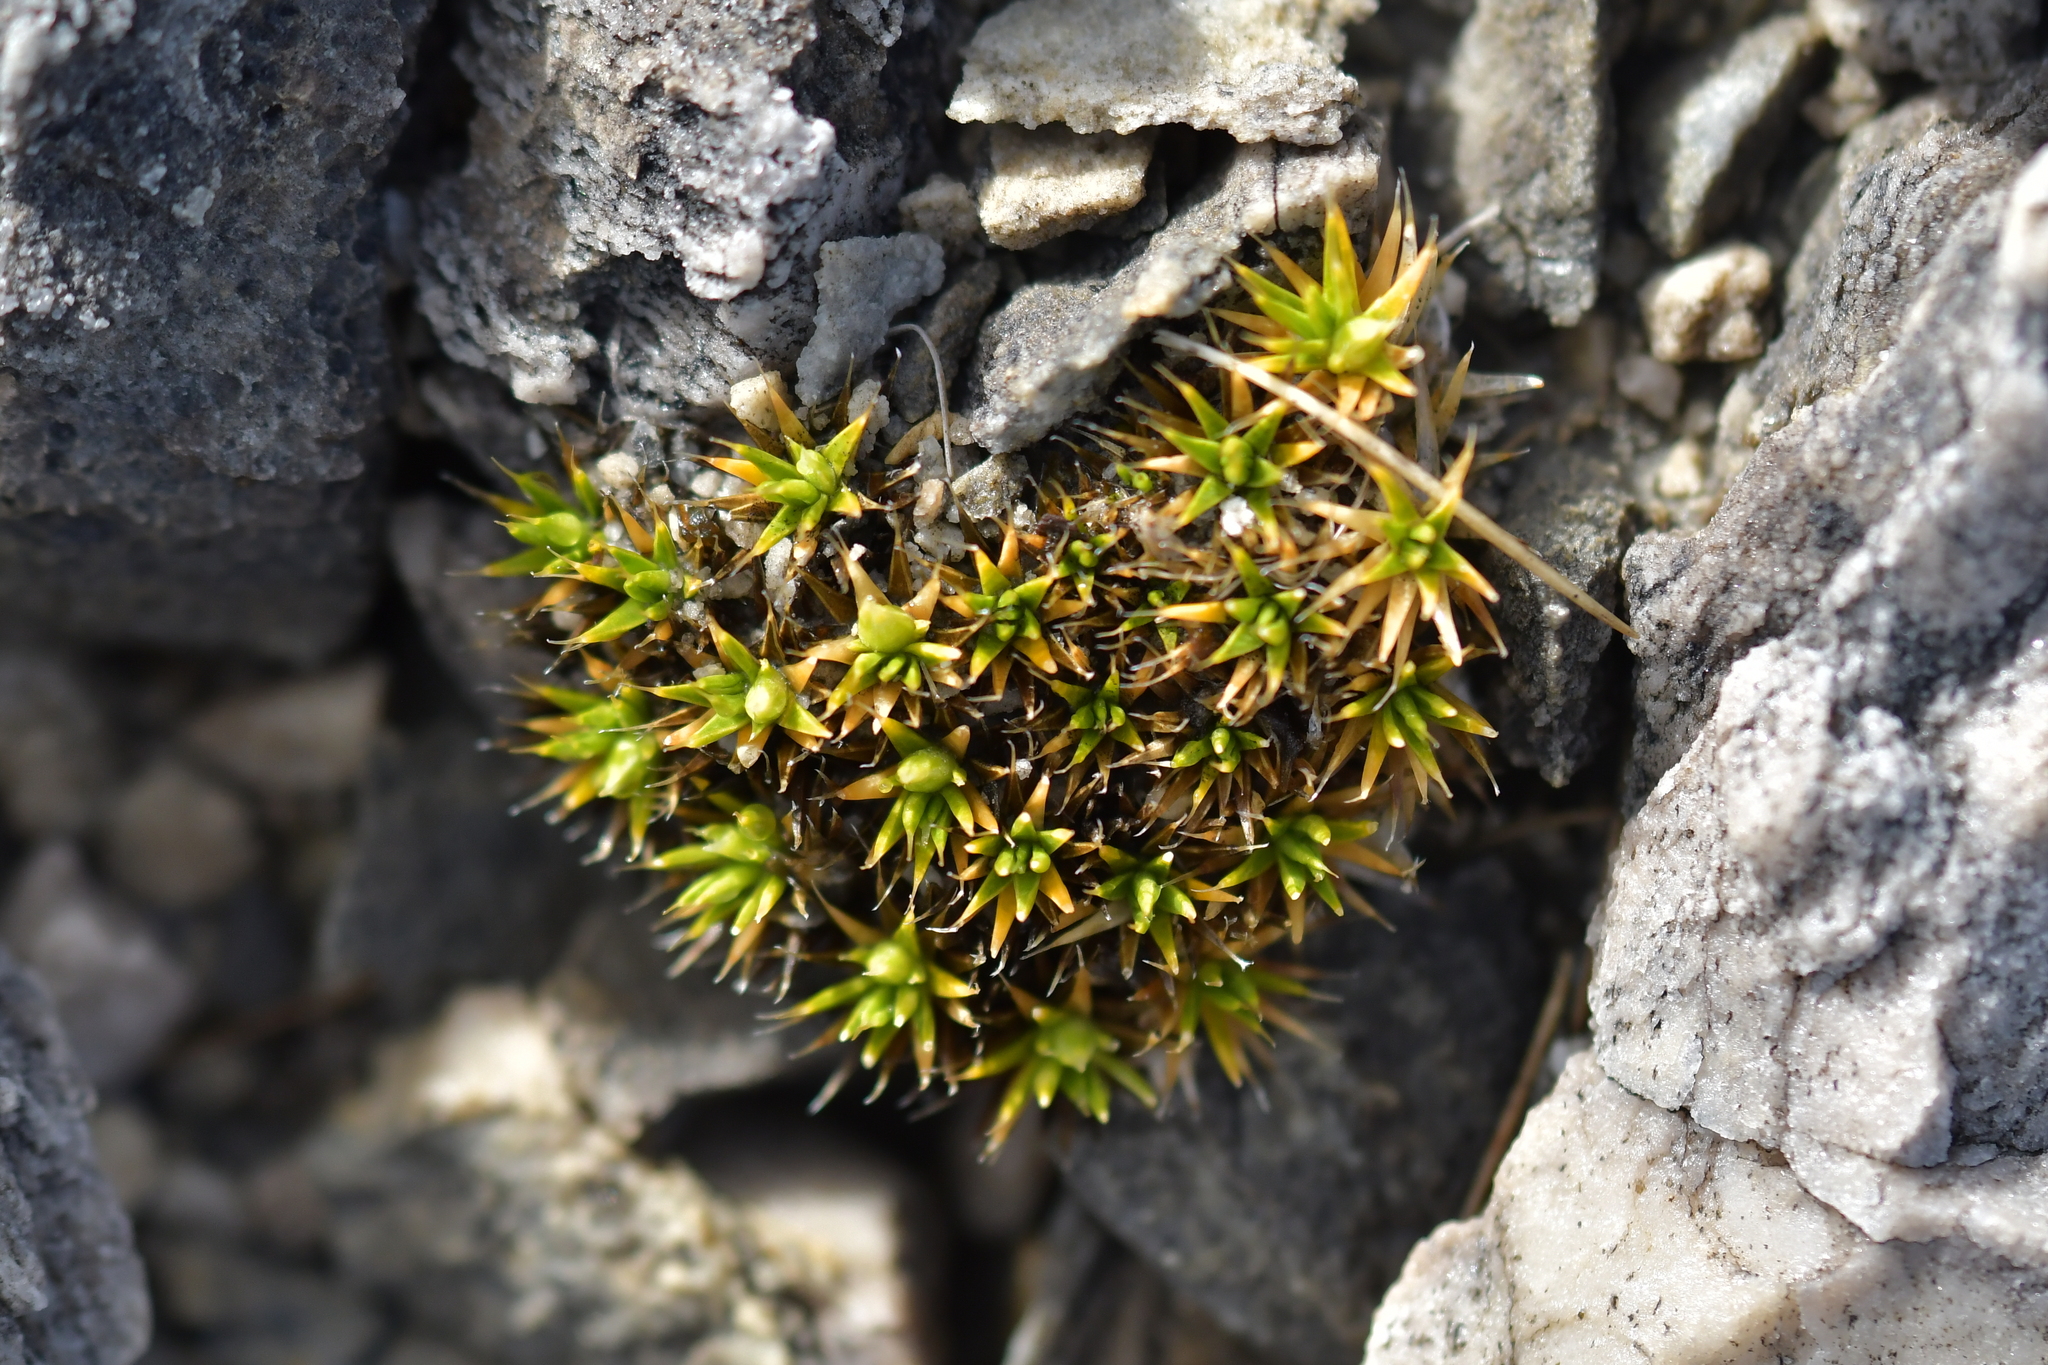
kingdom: Plantae
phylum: Tracheophyta
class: Magnoliopsida
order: Caryophyllales
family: Caryophyllaceae
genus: Colobanthus
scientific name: Colobanthus buchananii
